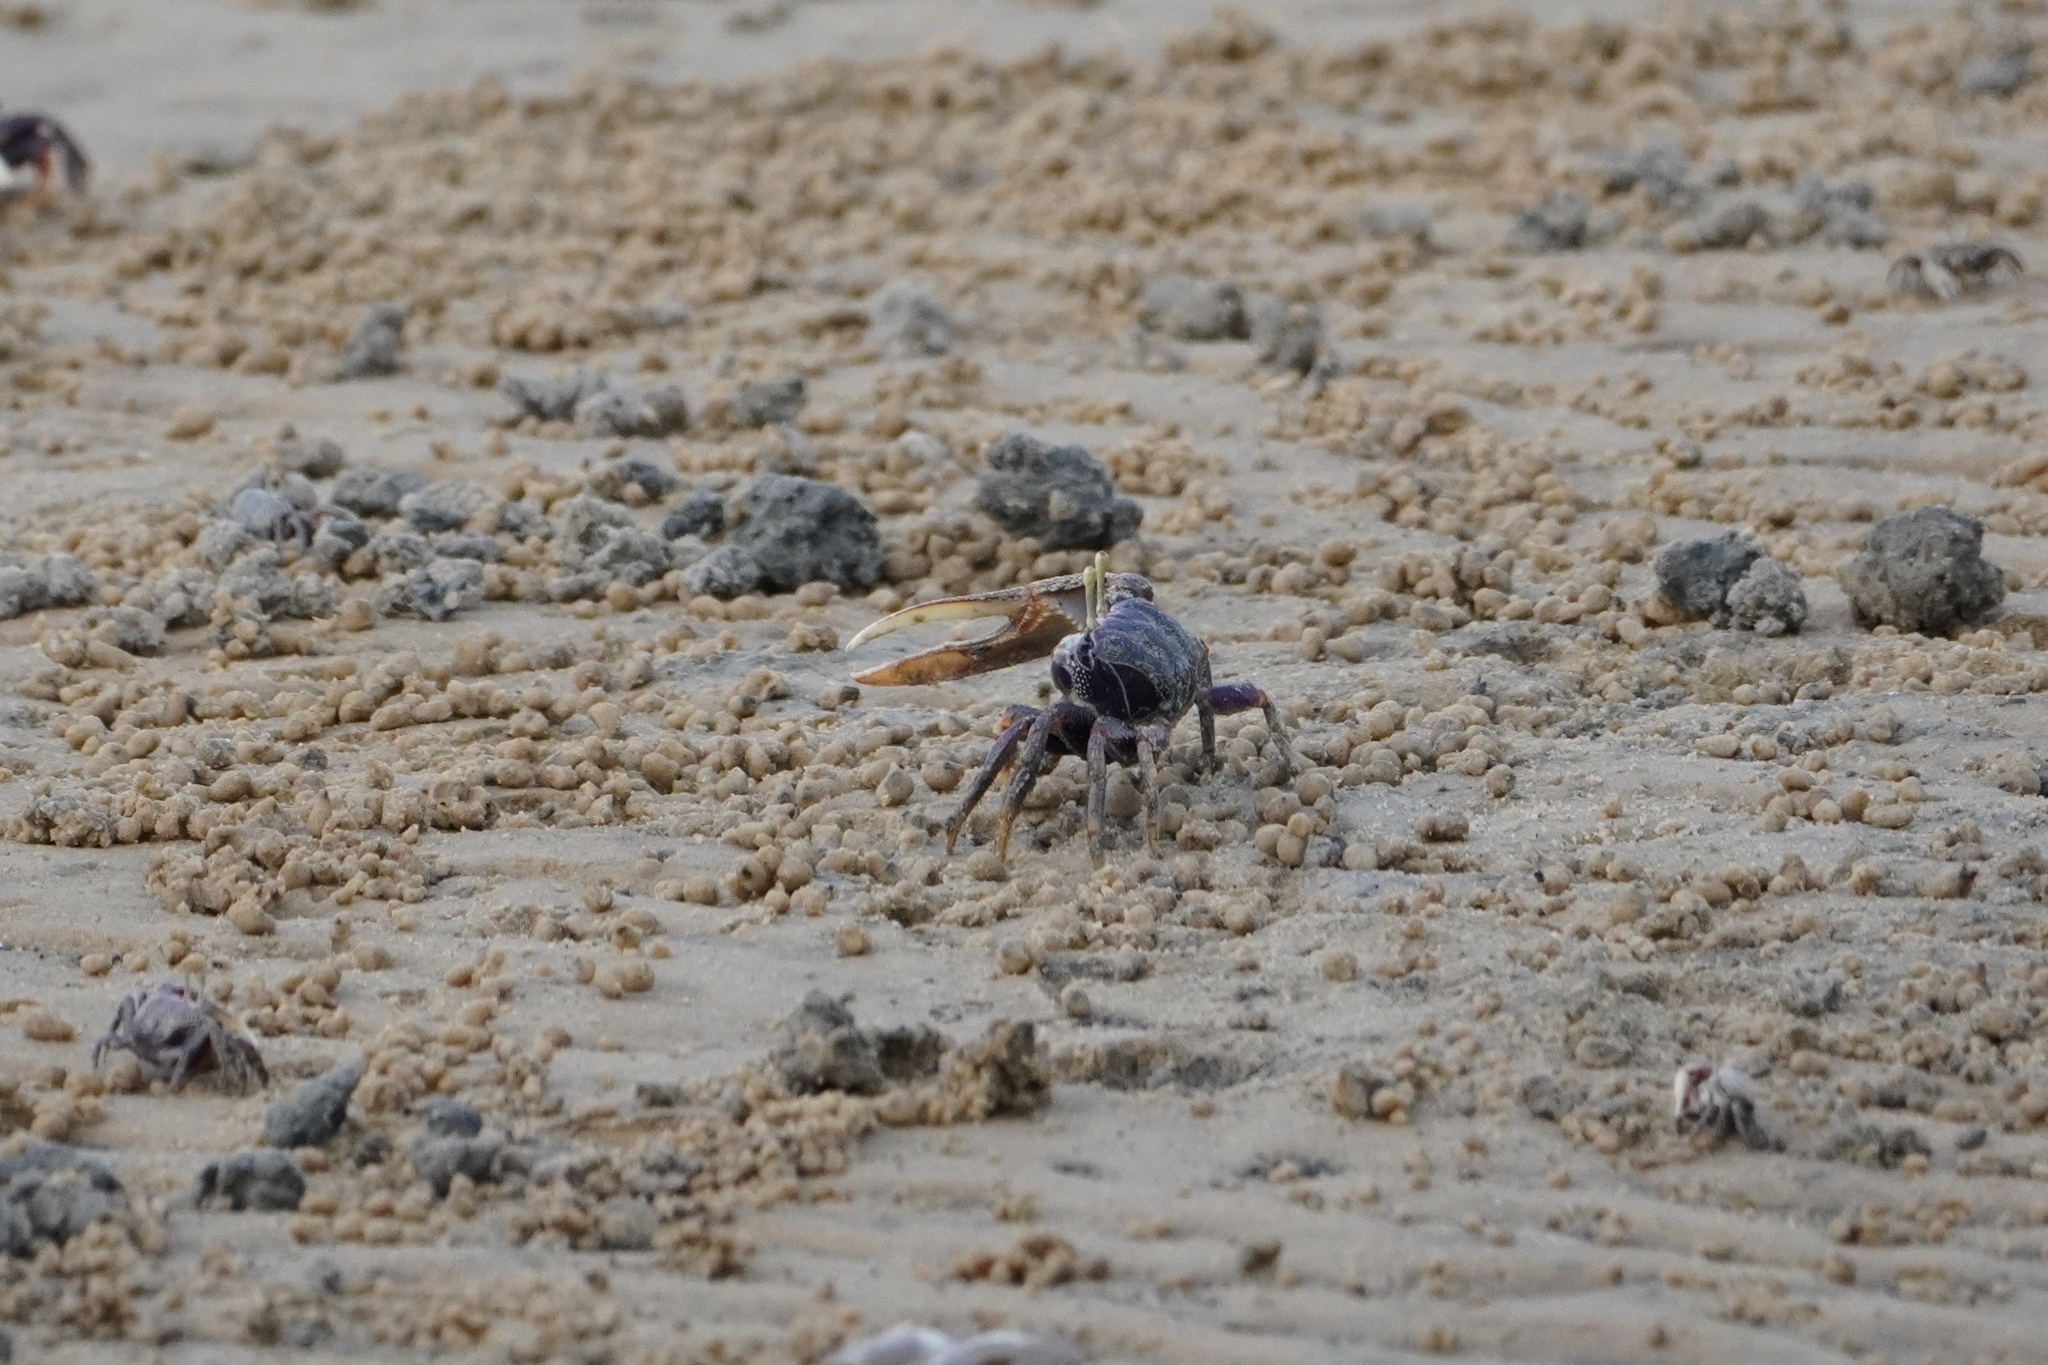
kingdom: Animalia
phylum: Arthropoda
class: Malacostraca
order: Decapoda
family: Ocypodidae
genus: Afruca
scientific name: Afruca tangeri
